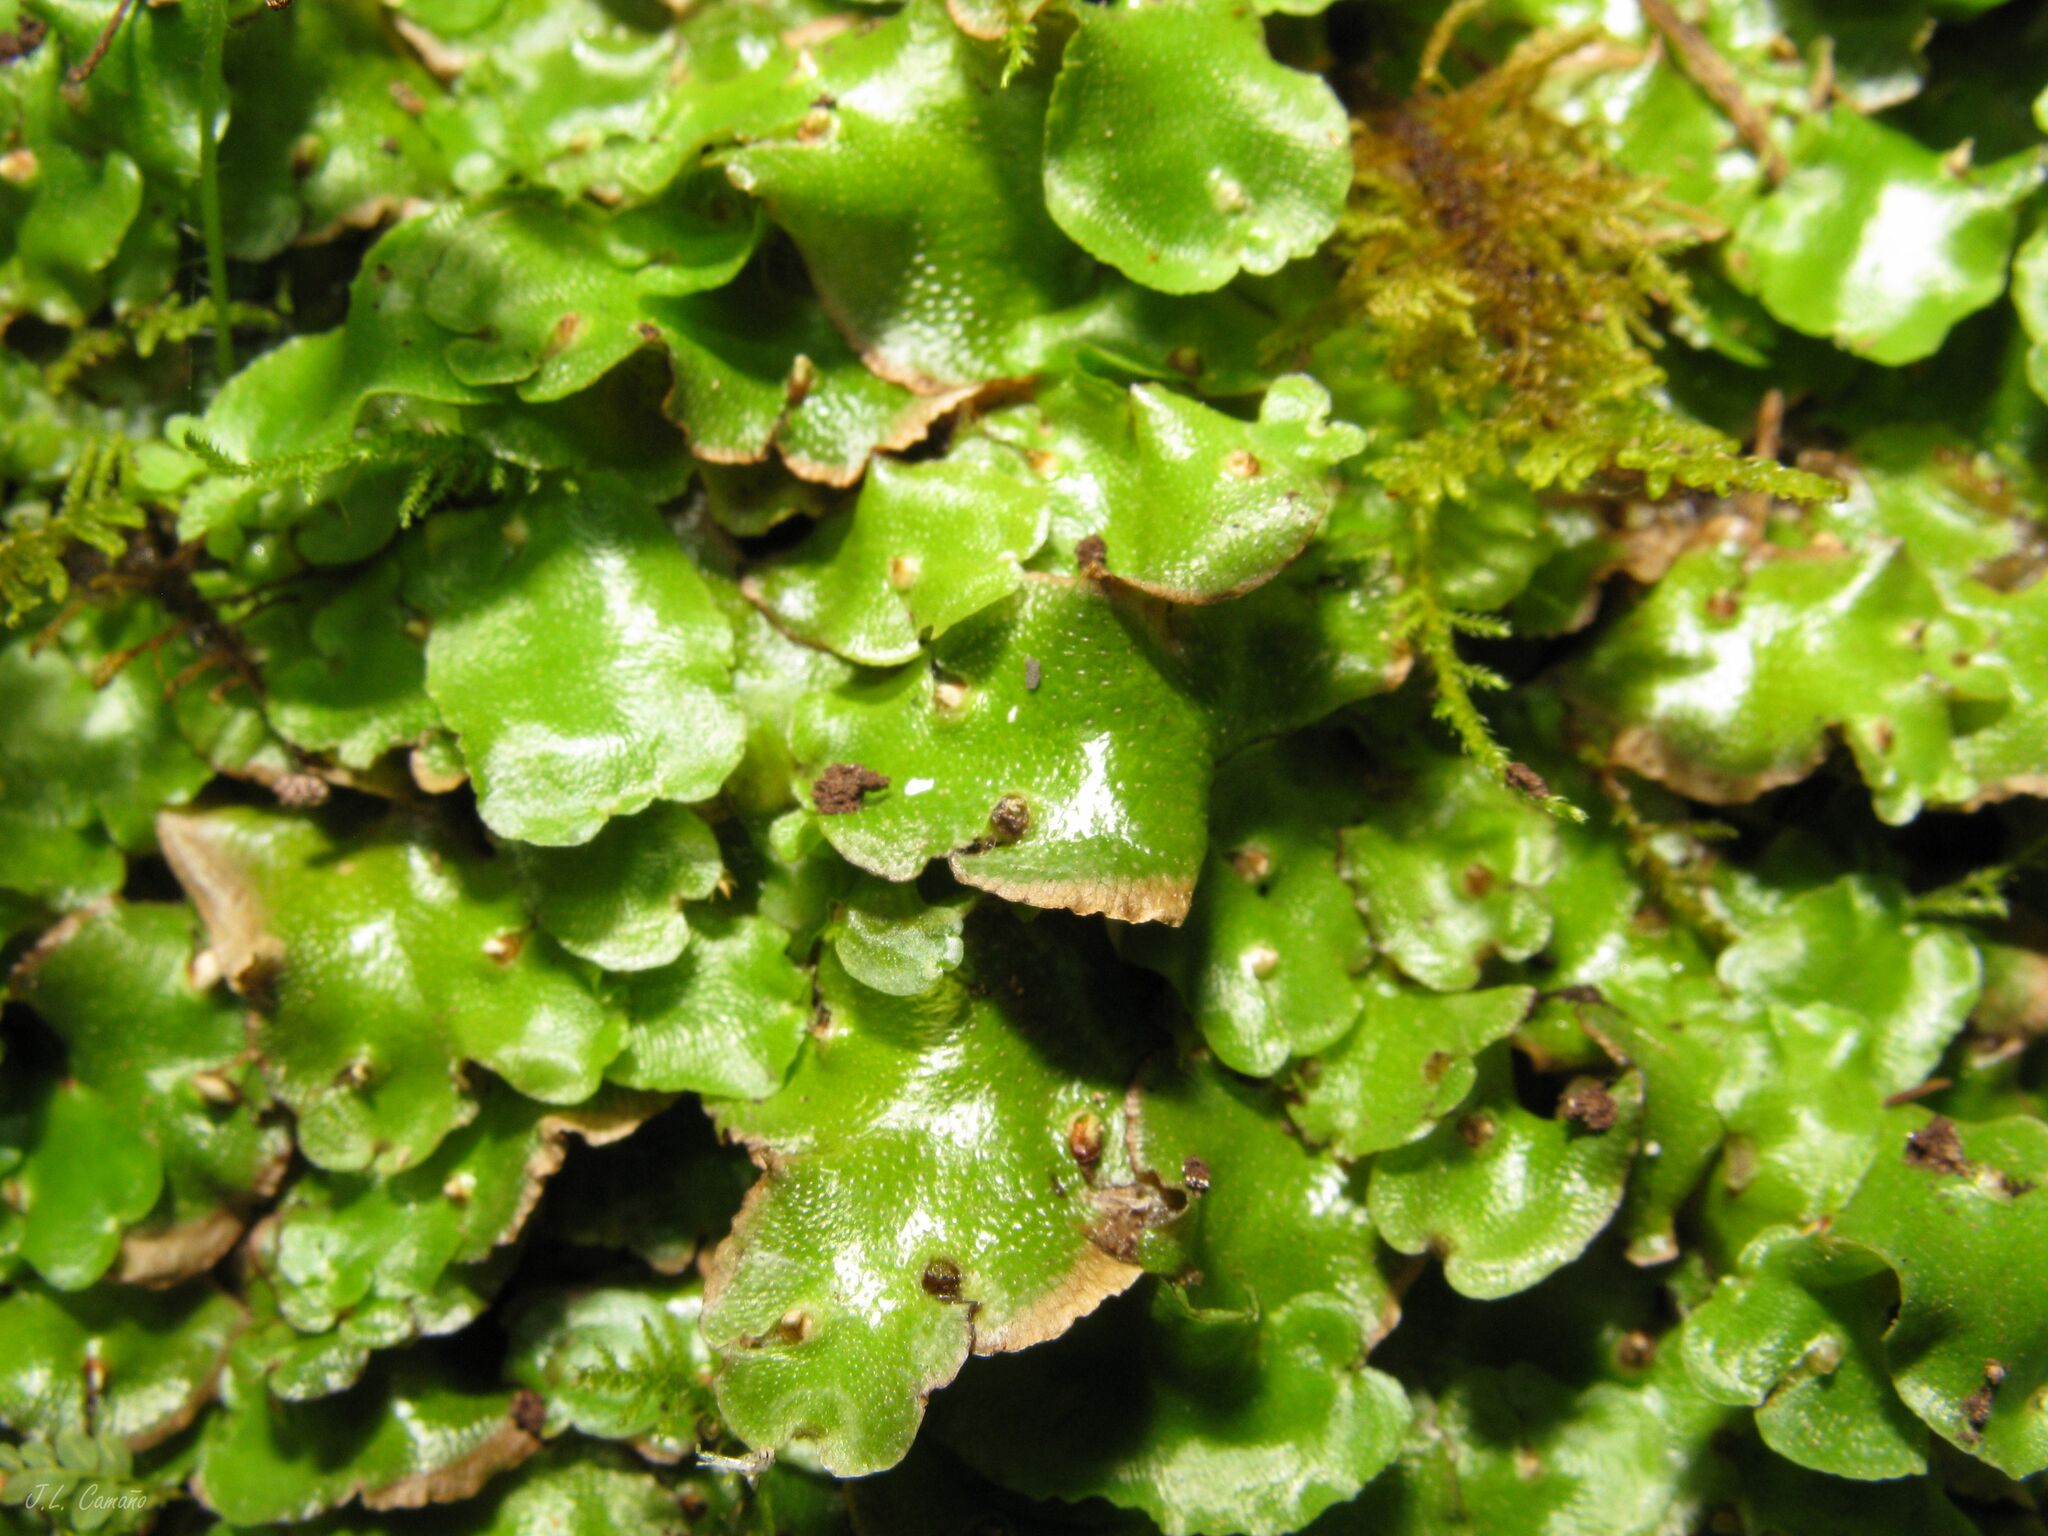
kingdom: Plantae
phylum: Marchantiophyta
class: Marchantiopsida
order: Lunulariales
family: Lunulariaceae
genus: Lunularia
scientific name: Lunularia cruciata
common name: Crescent-cup liverwort
